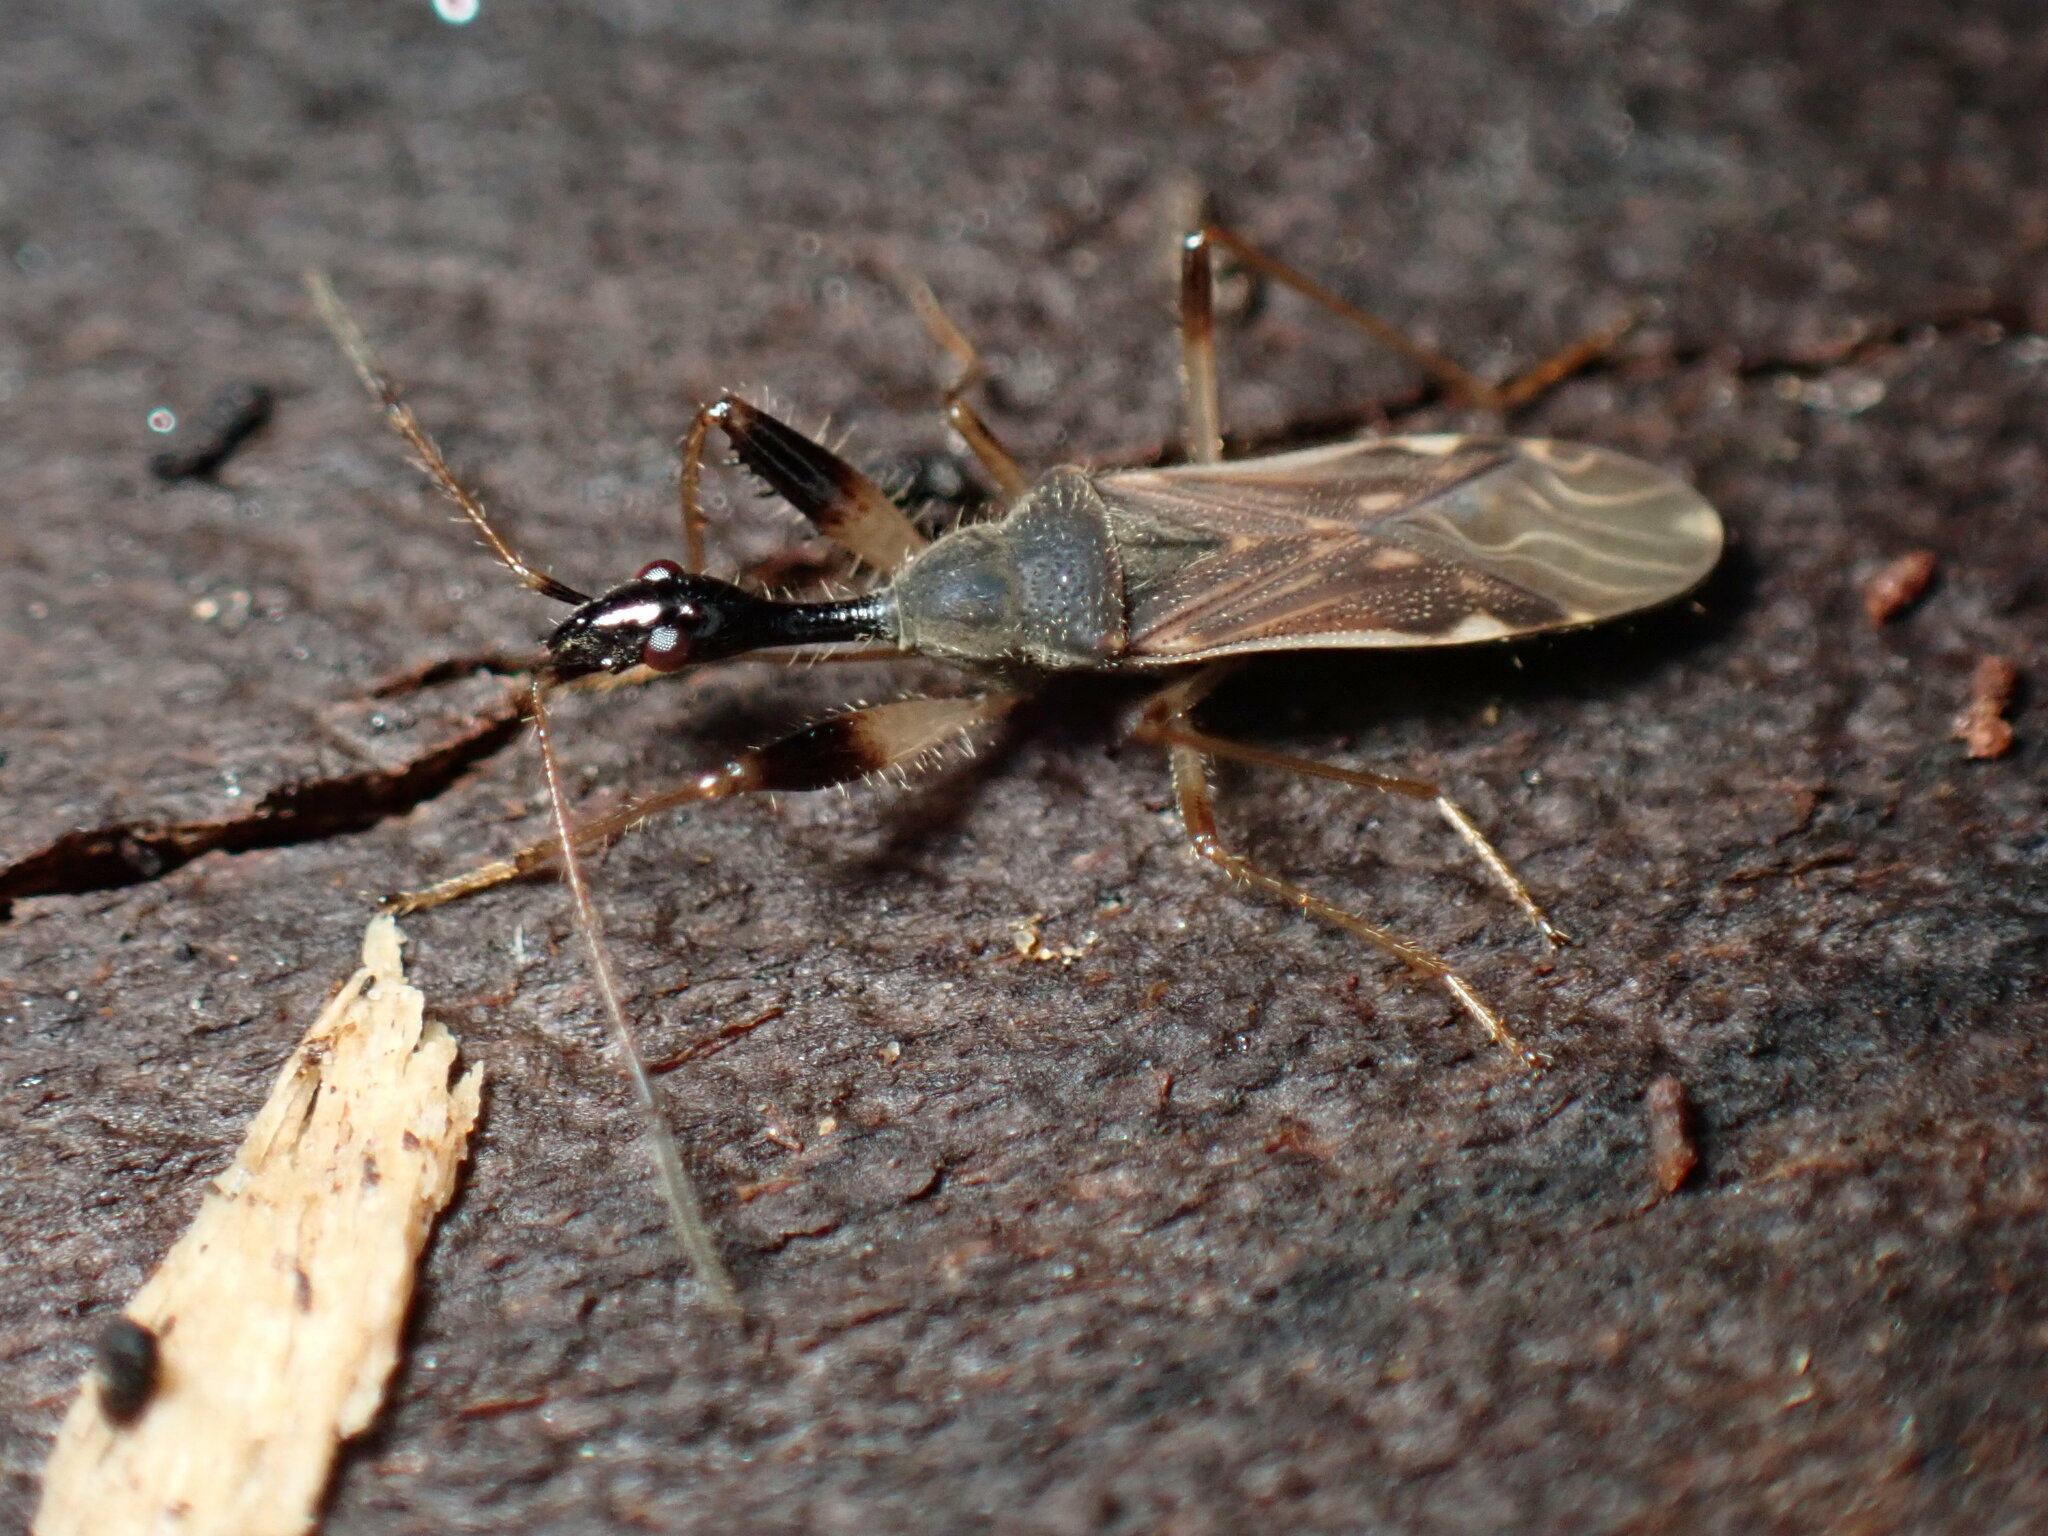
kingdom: Animalia
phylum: Arthropoda
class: Insecta
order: Hemiptera
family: Rhyparochromidae
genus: Myodocha
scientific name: Myodocha serripes
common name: Long-necked seed bug
